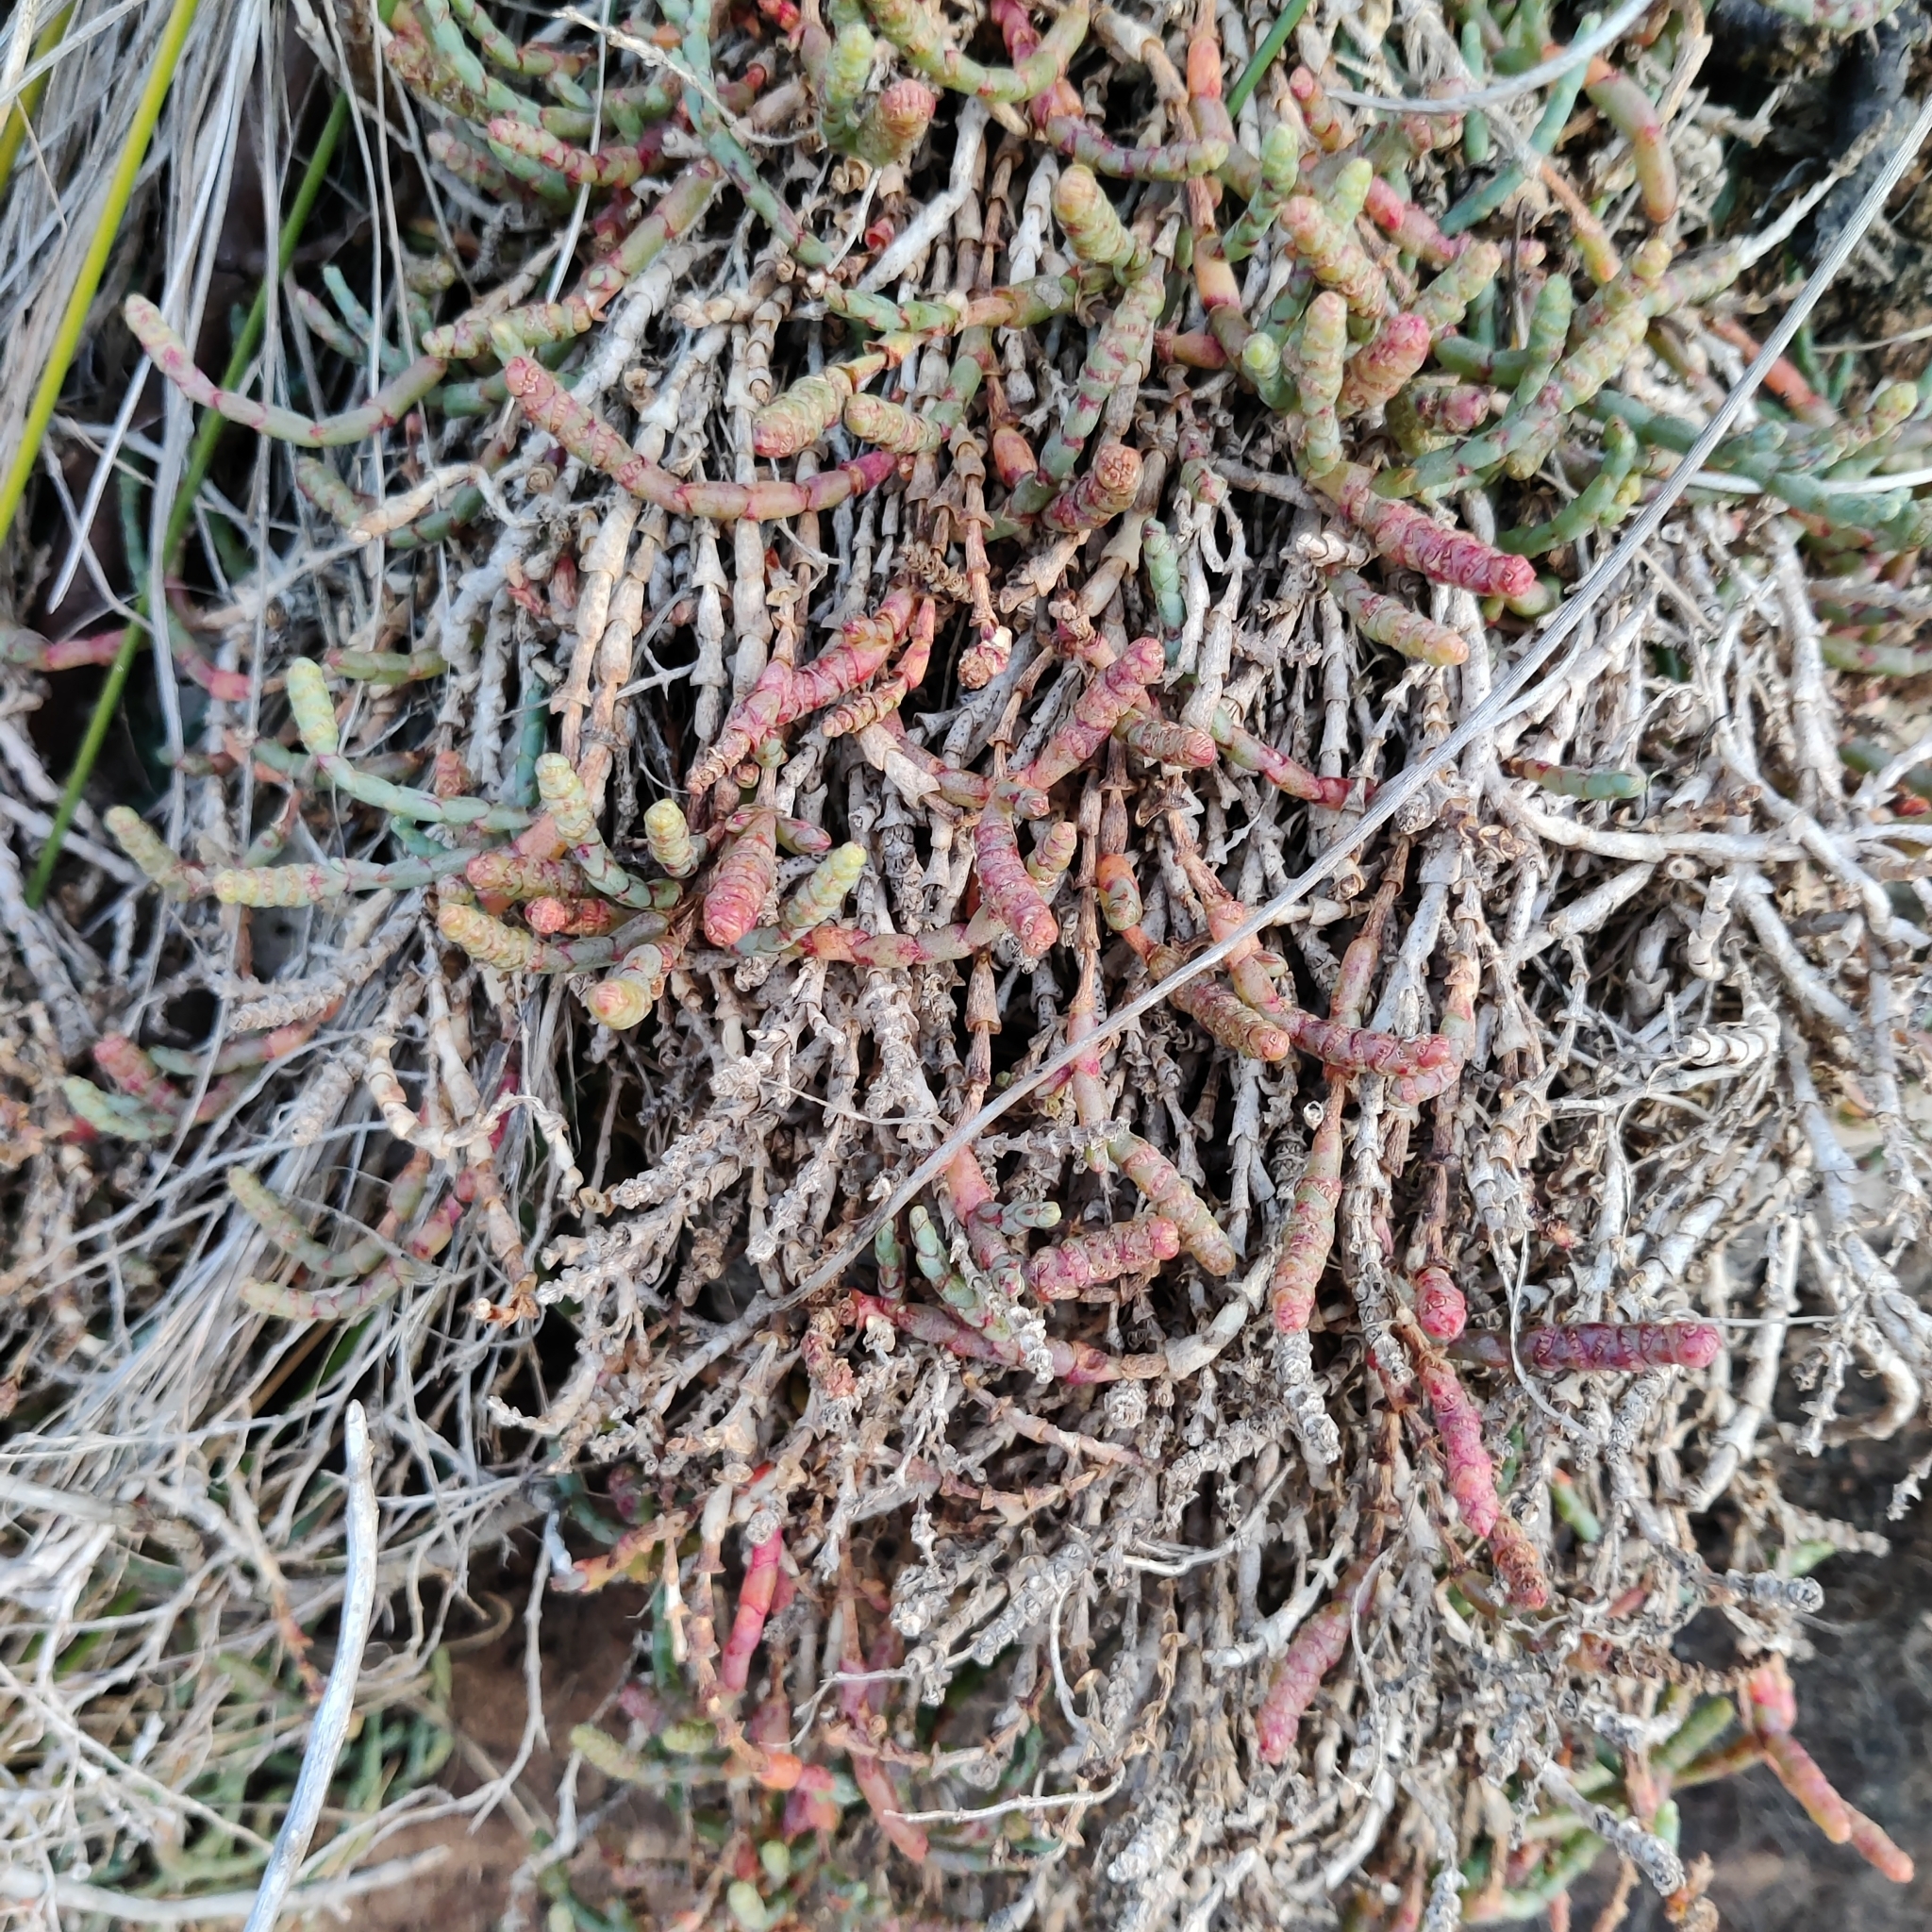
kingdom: Plantae
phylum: Tracheophyta
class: Magnoliopsida
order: Caryophyllales
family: Amaranthaceae
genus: Salicornia
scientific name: Salicornia quinqueflora
